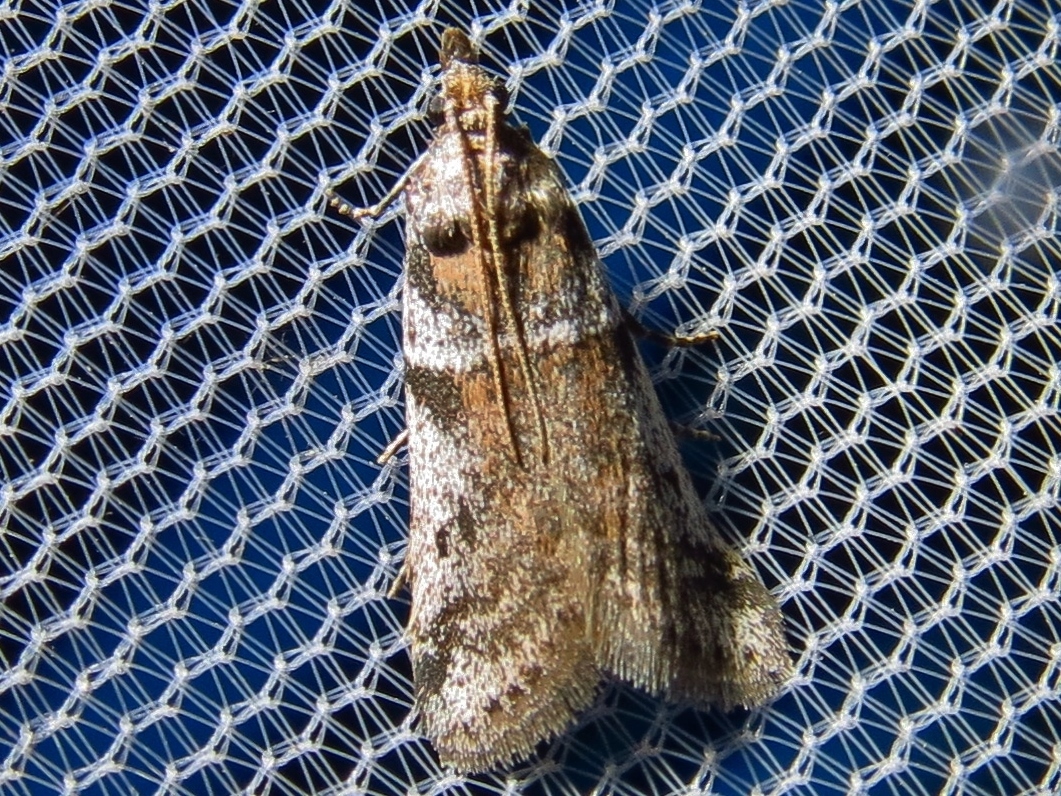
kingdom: Animalia
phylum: Arthropoda
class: Insecta
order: Lepidoptera
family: Pyralidae
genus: Laetilia
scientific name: Laetilia coccidivora
